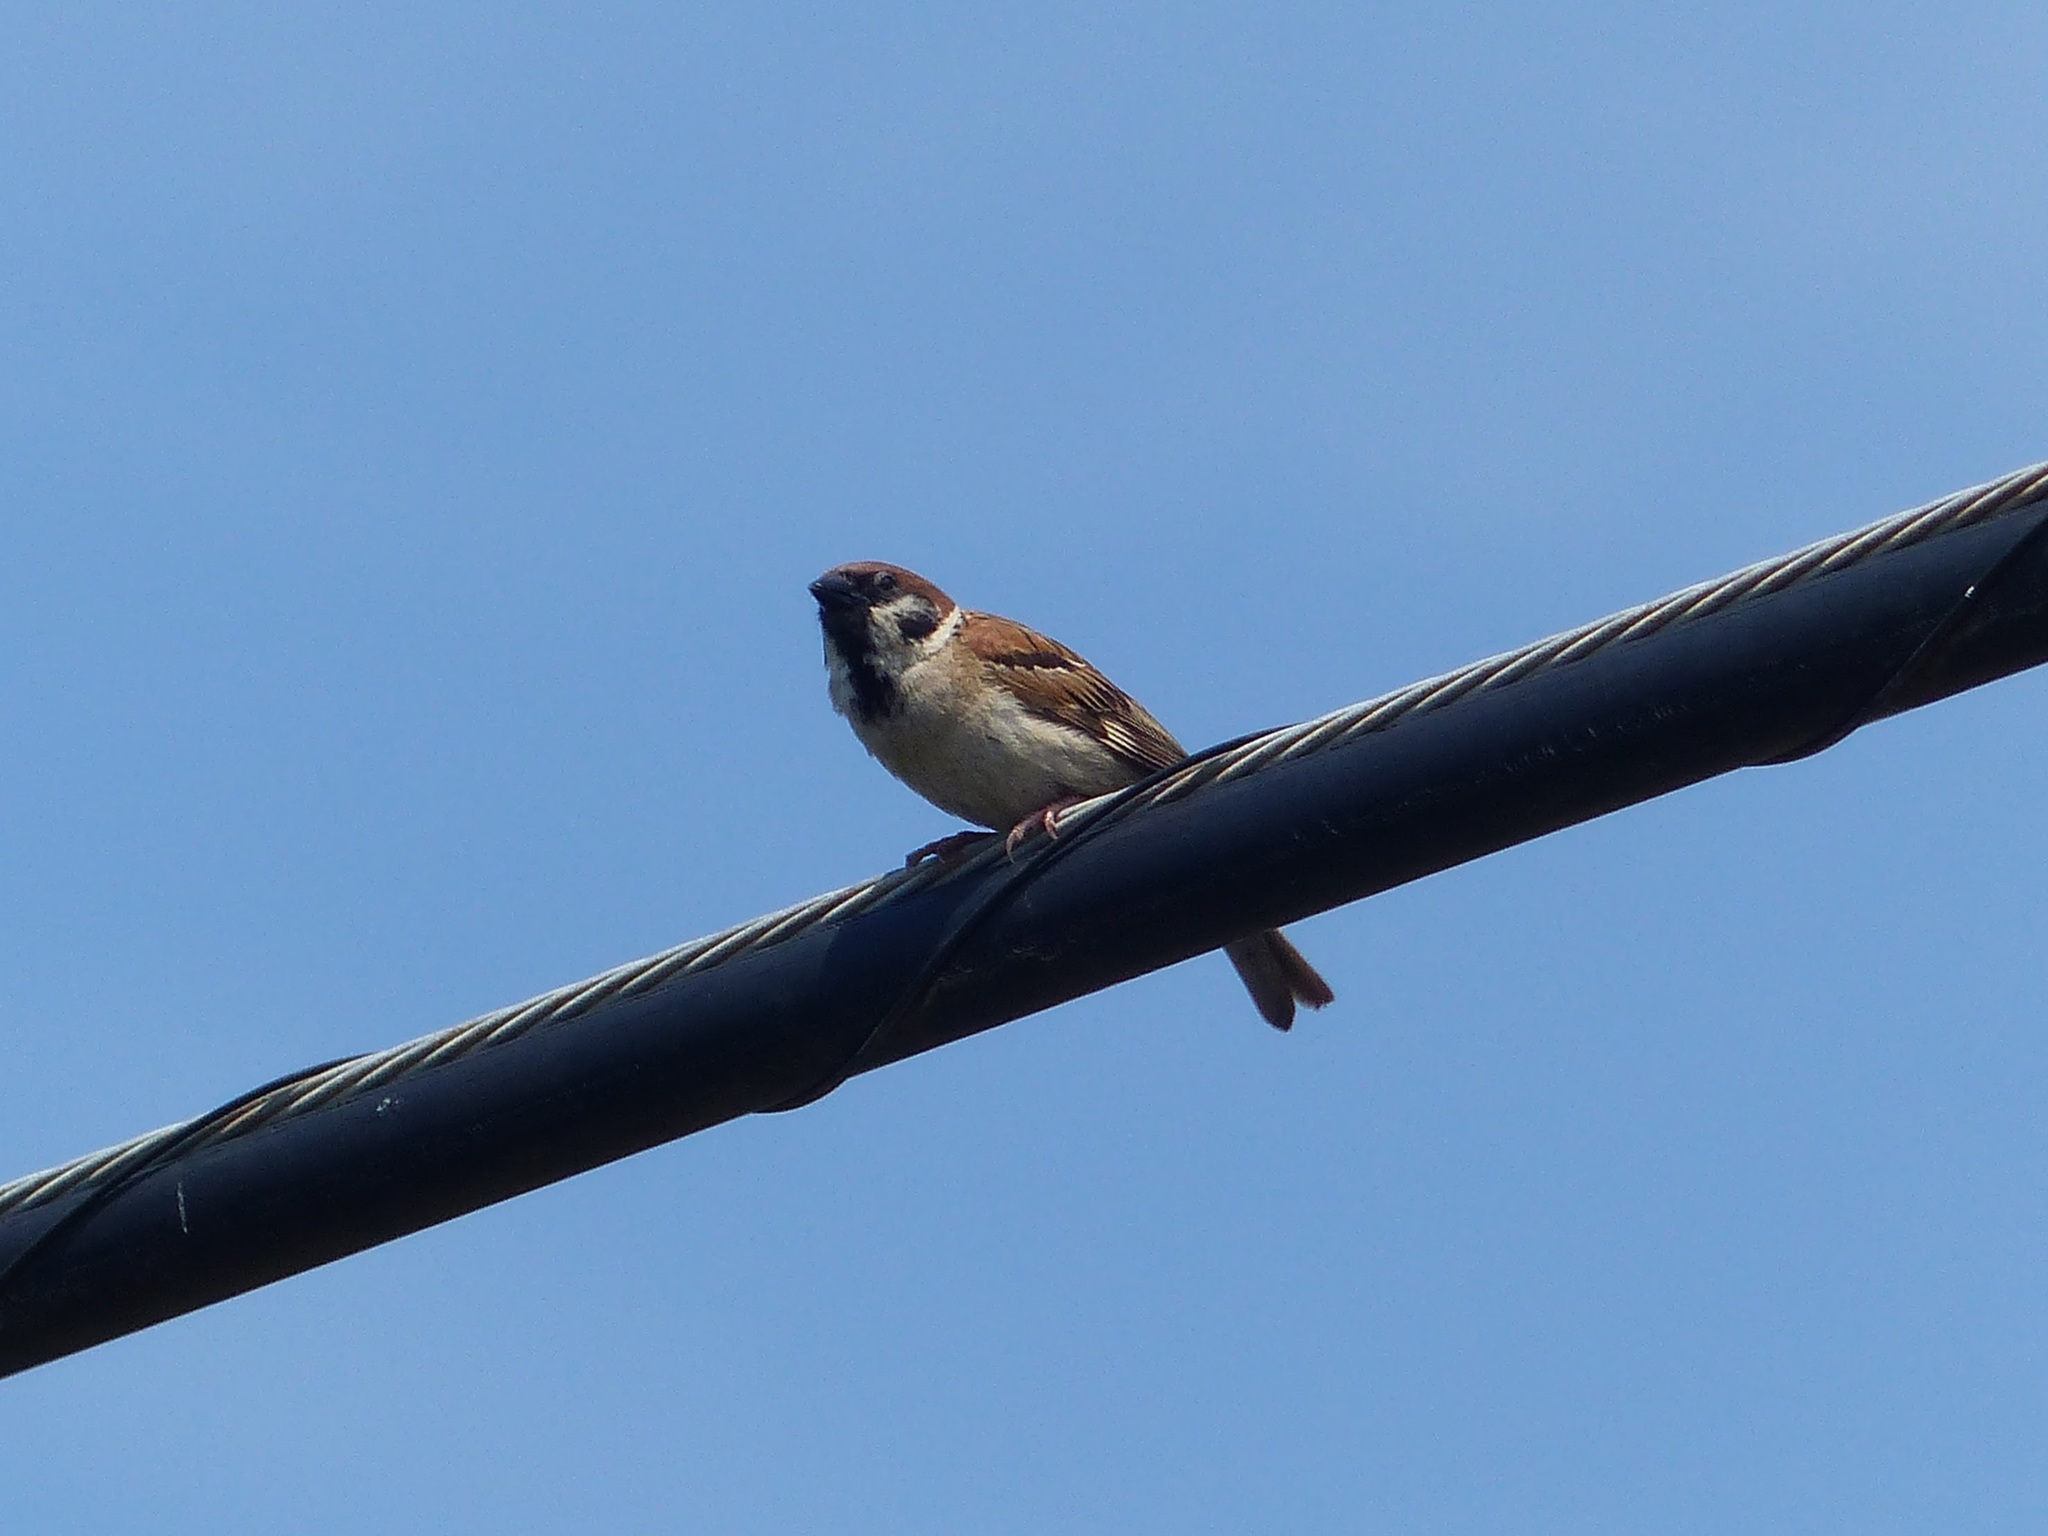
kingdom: Animalia
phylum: Chordata
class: Aves
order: Passeriformes
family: Passeridae
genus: Passer
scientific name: Passer montanus
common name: Eurasian tree sparrow
